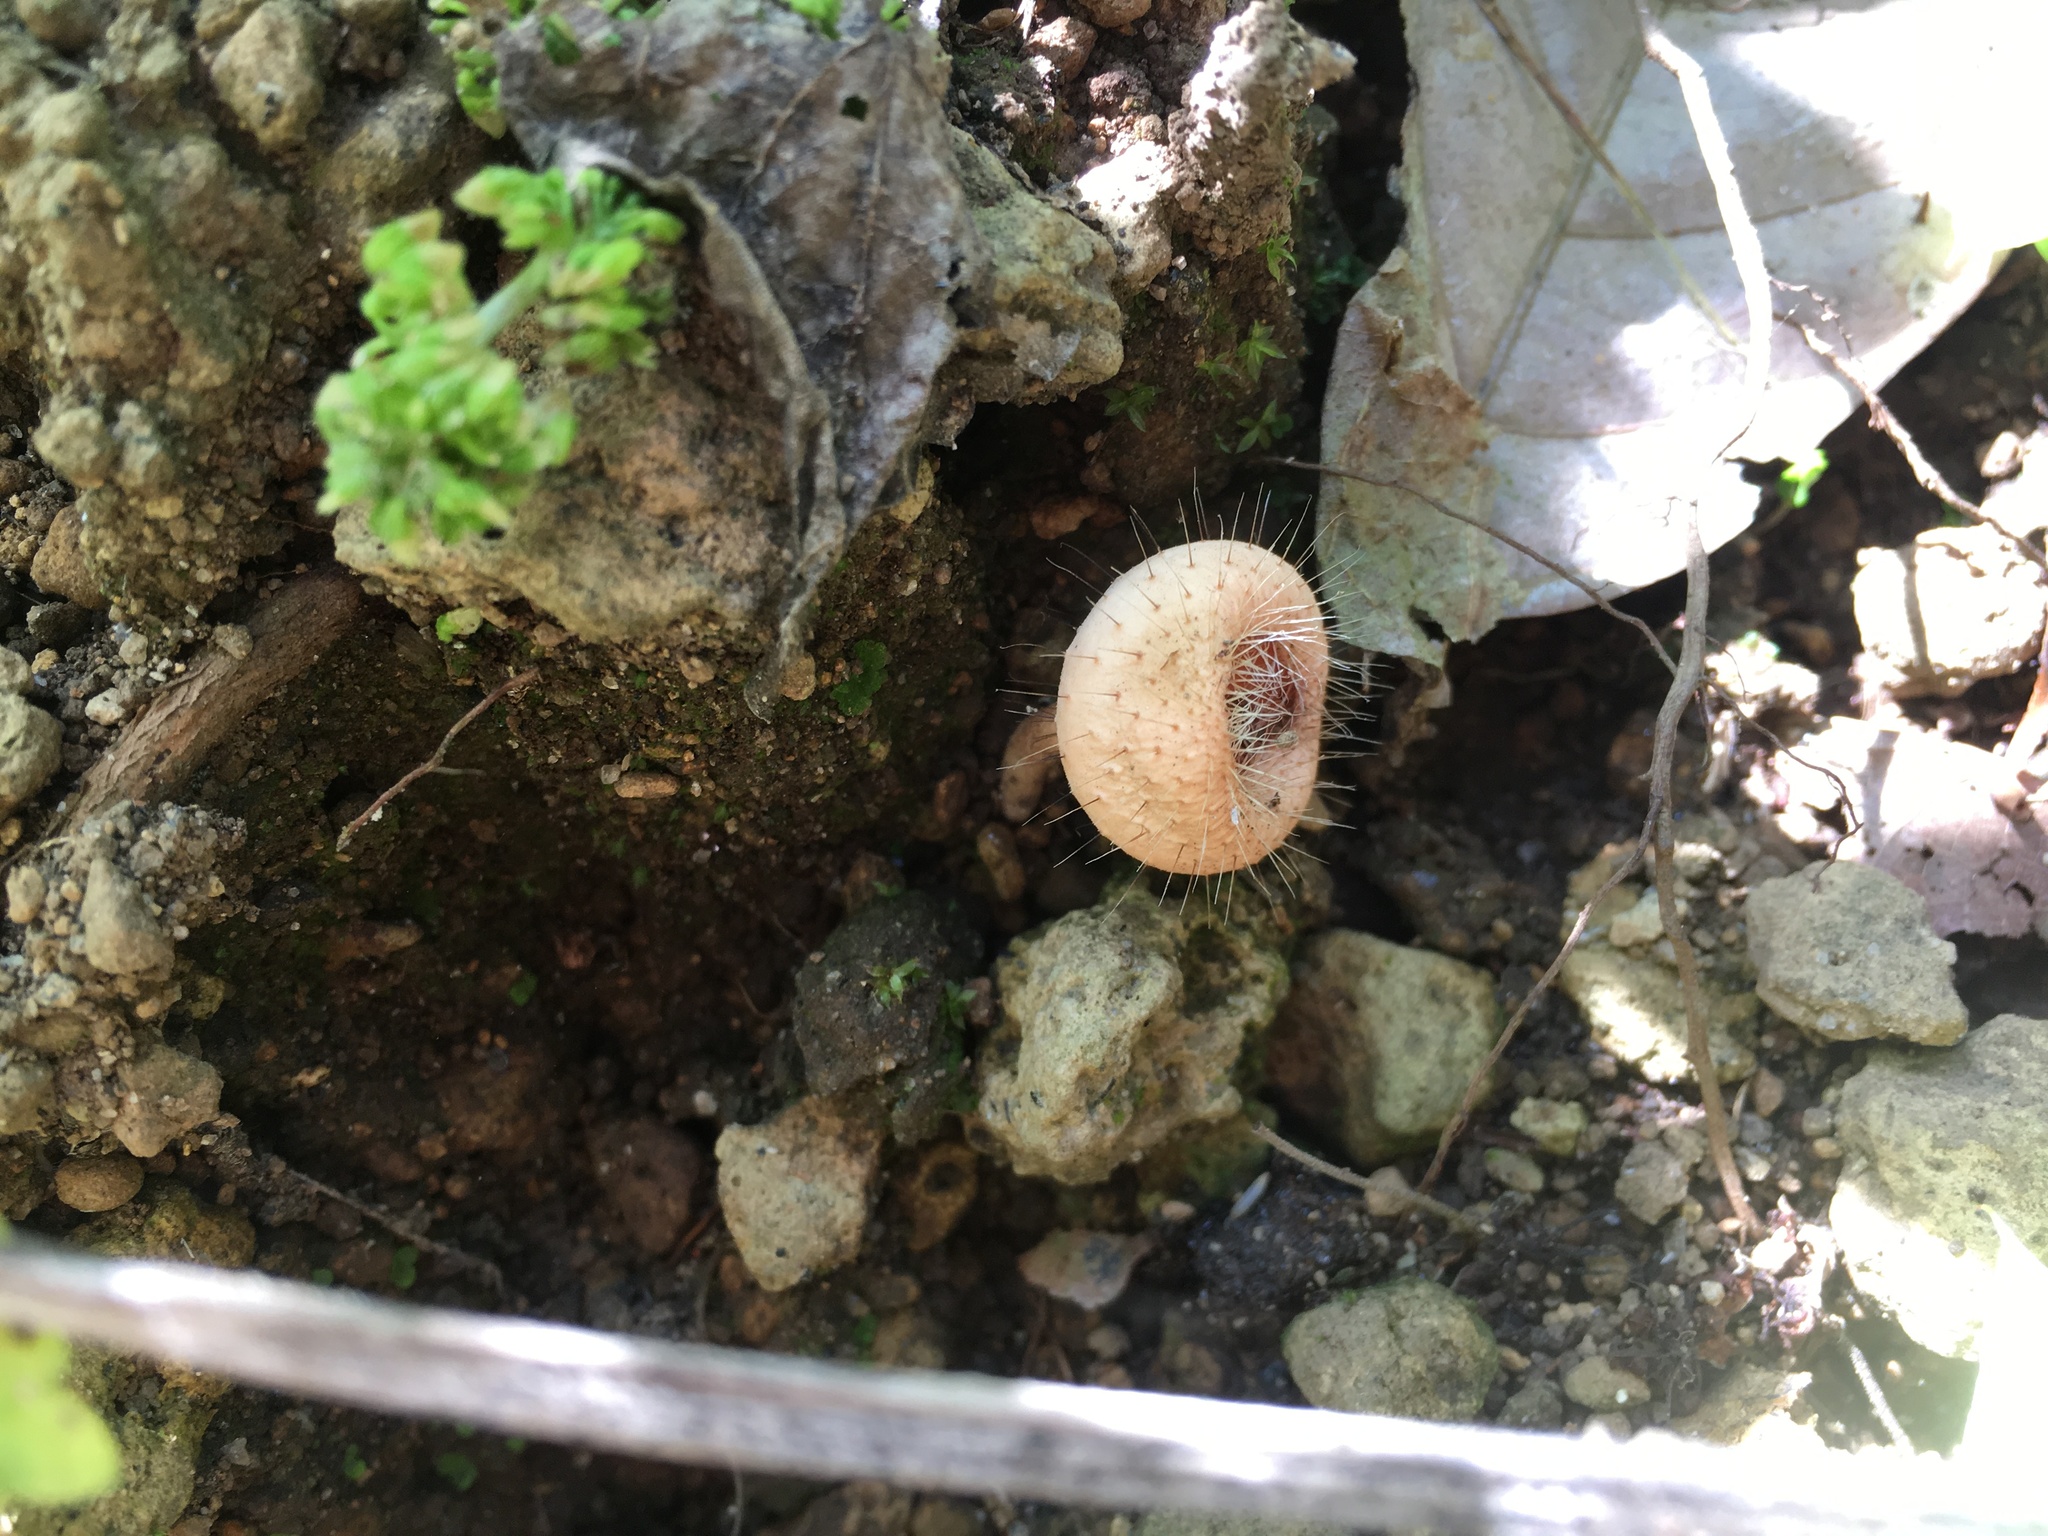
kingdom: Fungi
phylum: Ascomycota
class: Pezizomycetes
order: Pezizales
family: Sarcoscyphaceae
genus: Cookeina
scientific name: Cookeina tricholoma
